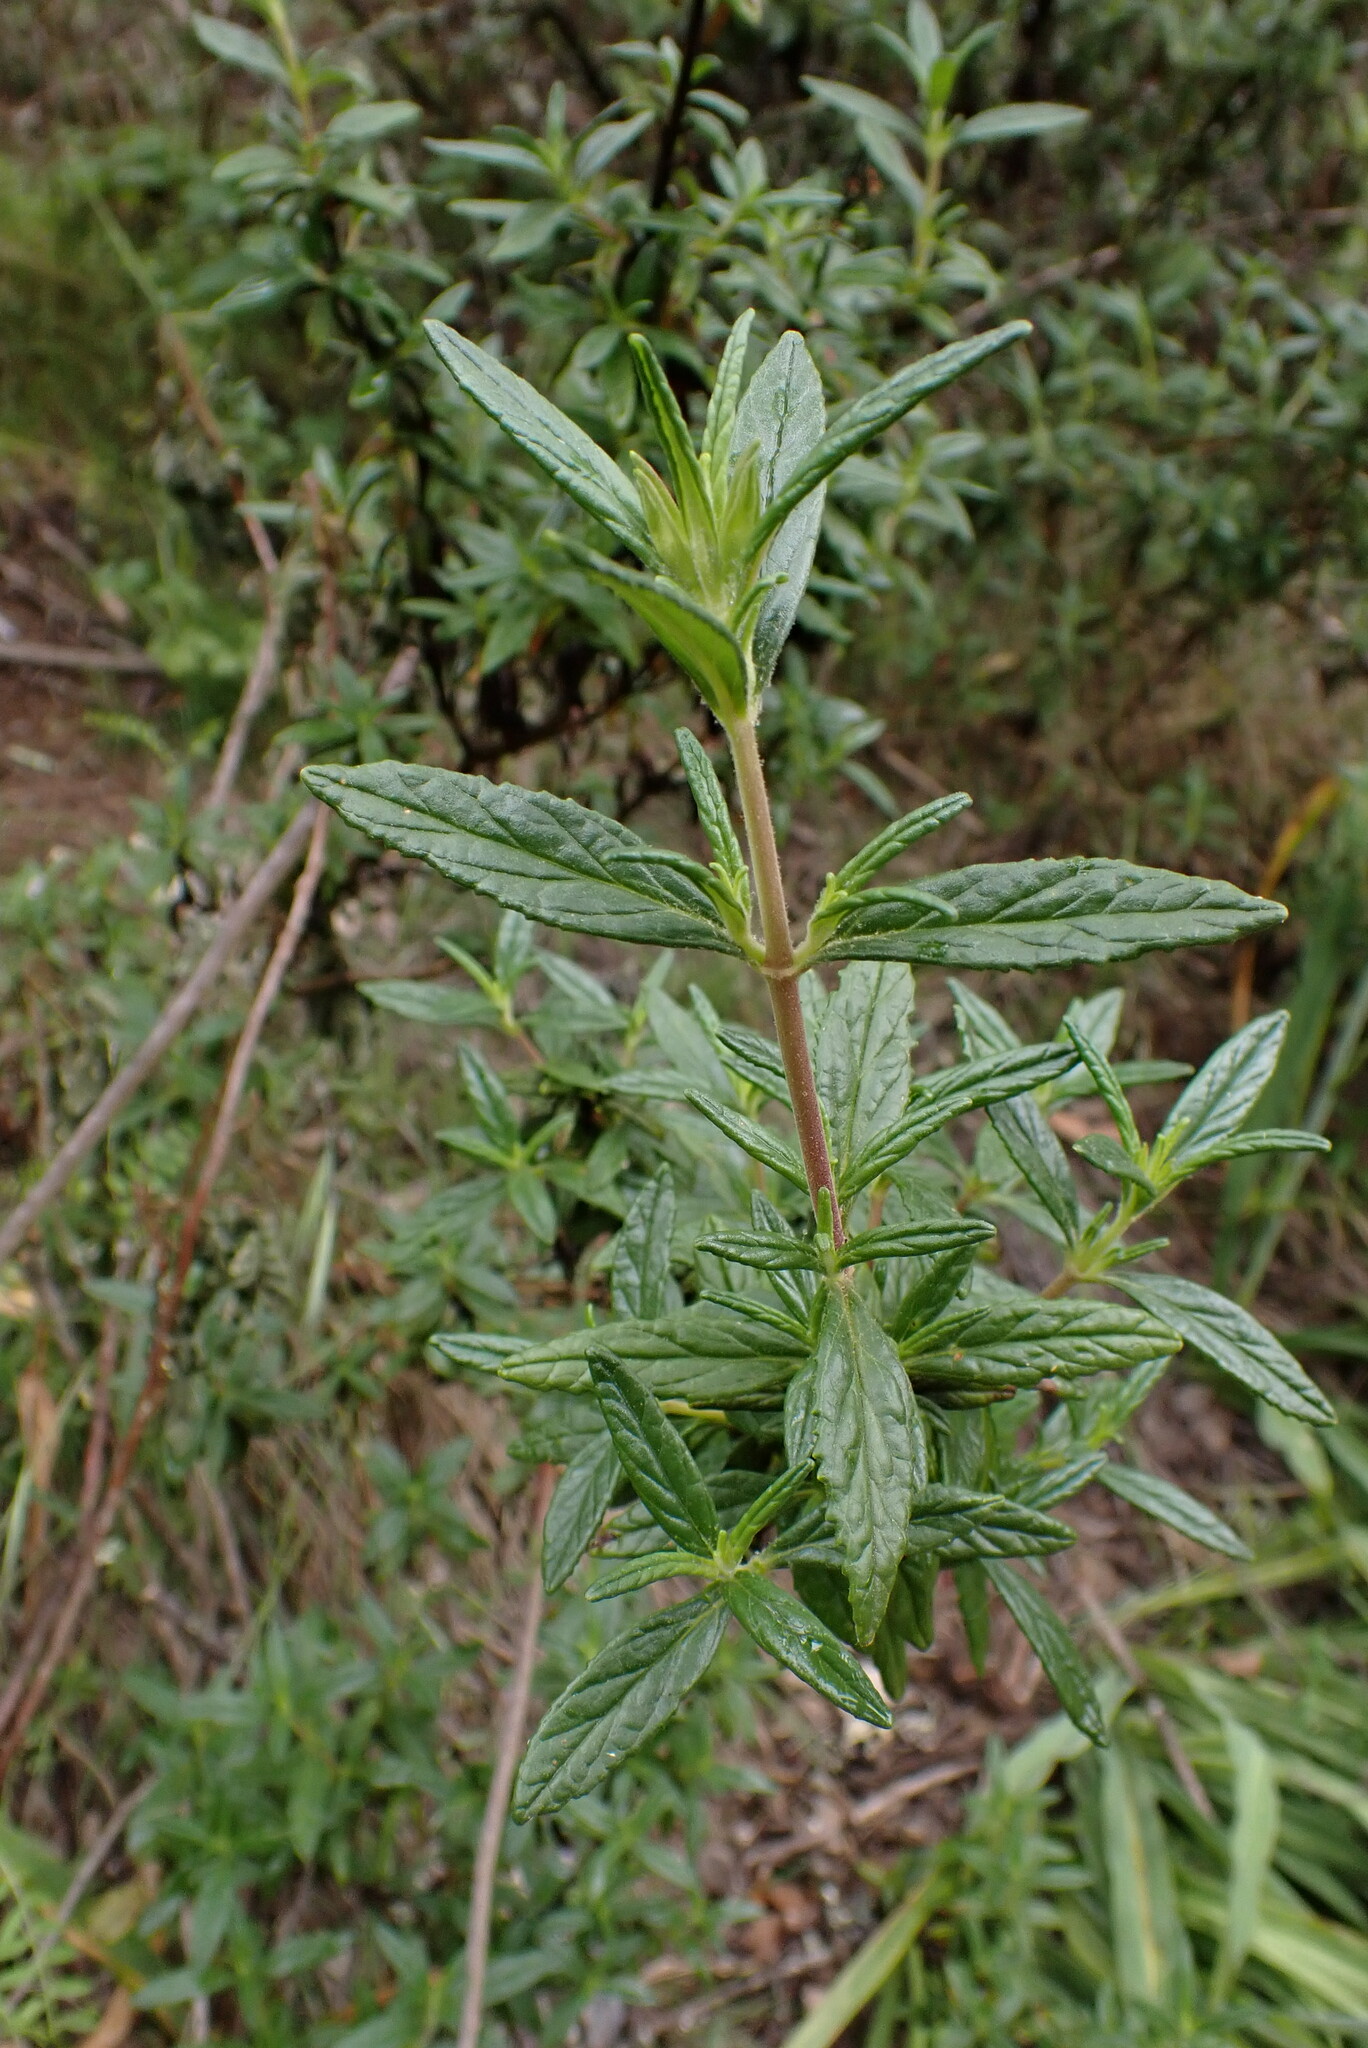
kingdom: Plantae
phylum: Tracheophyta
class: Magnoliopsida
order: Lamiales
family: Phrymaceae
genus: Diplacus
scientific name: Diplacus aurantiacus
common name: Bush monkey-flower
